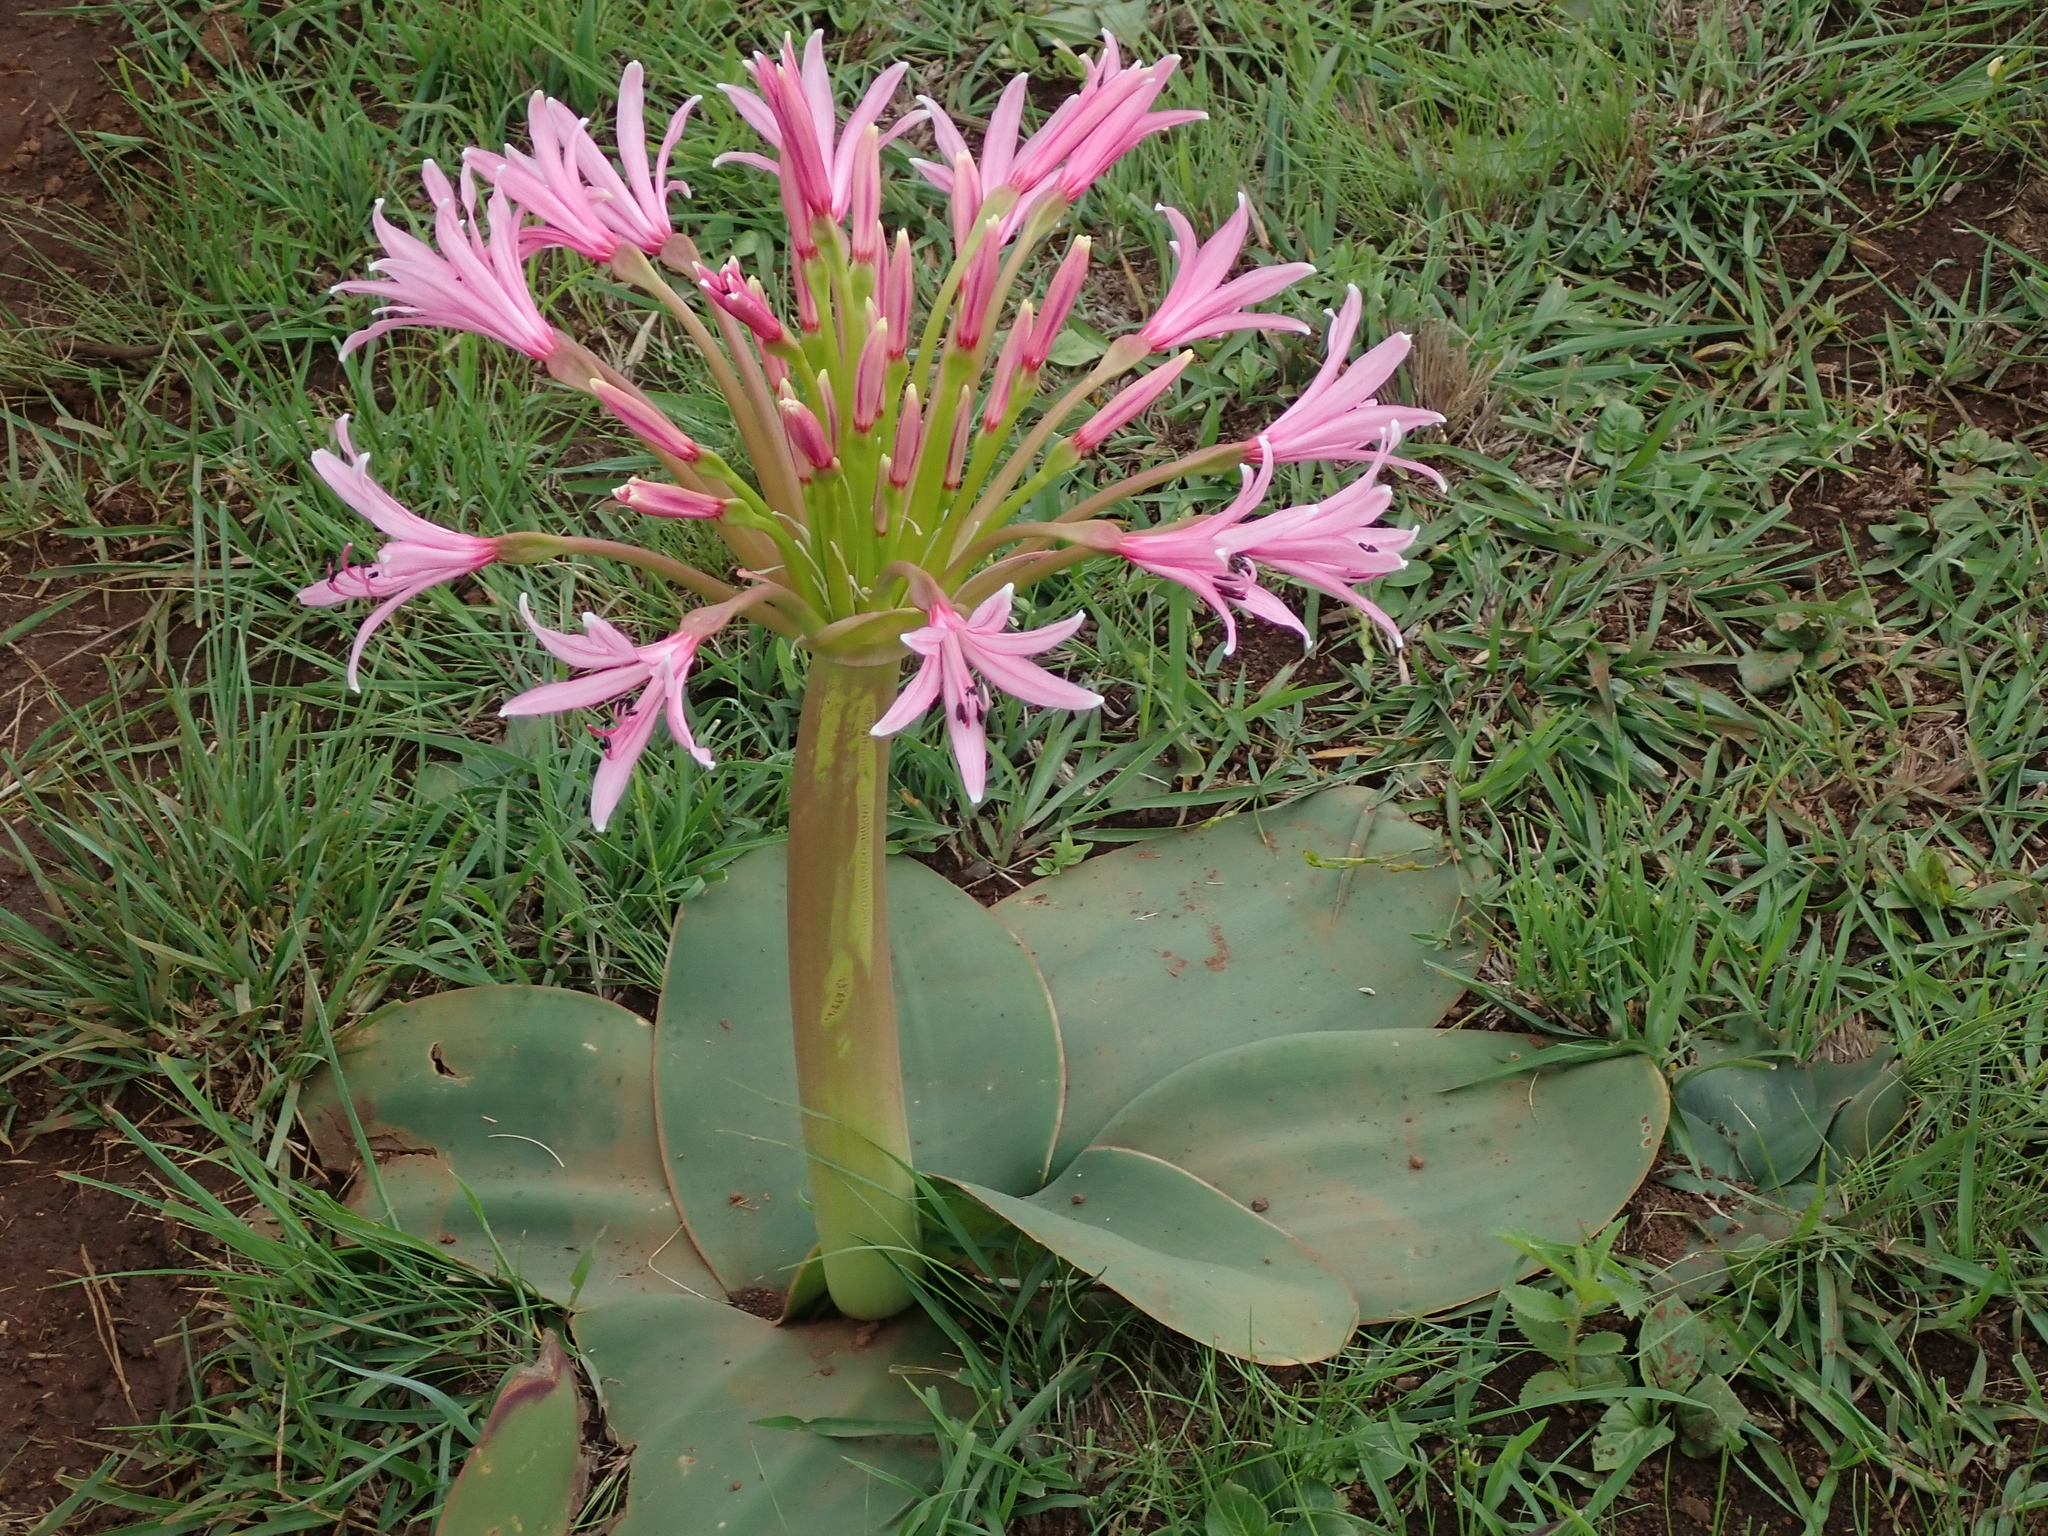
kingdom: Plantae
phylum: Tracheophyta
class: Liliopsida
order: Asparagales
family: Amaryllidaceae
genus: Brunsvigia
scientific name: Brunsvigia radulosa
